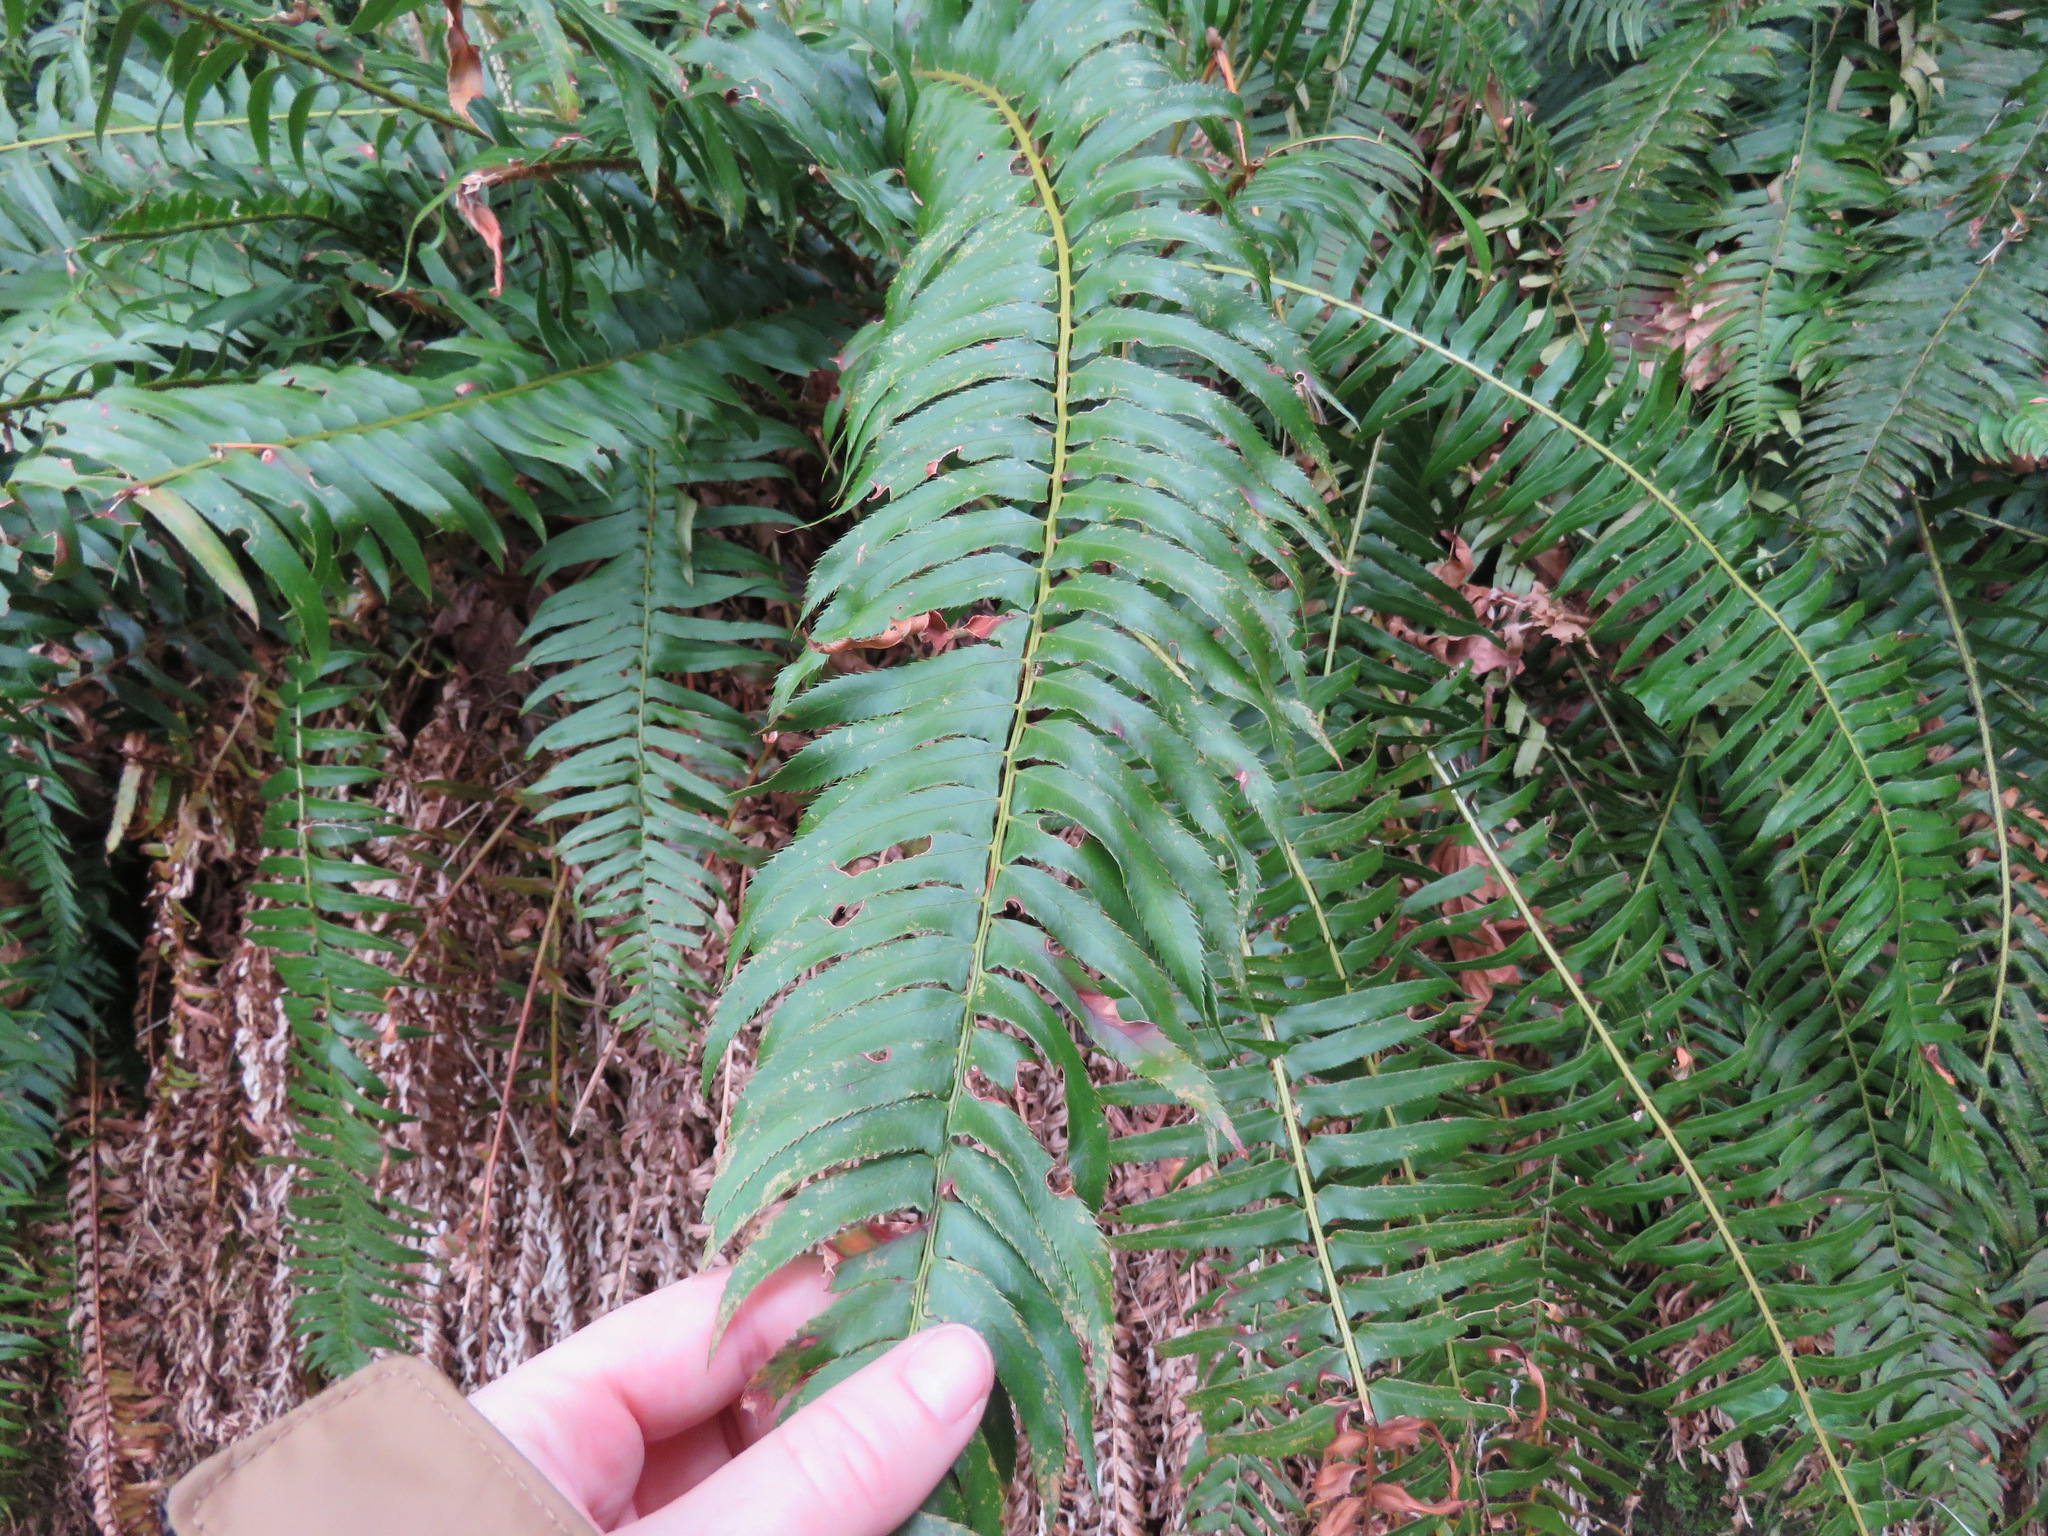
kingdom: Plantae
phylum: Tracheophyta
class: Polypodiopsida
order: Polypodiales
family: Dryopteridaceae
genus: Polystichum
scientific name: Polystichum munitum
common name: Western sword-fern
